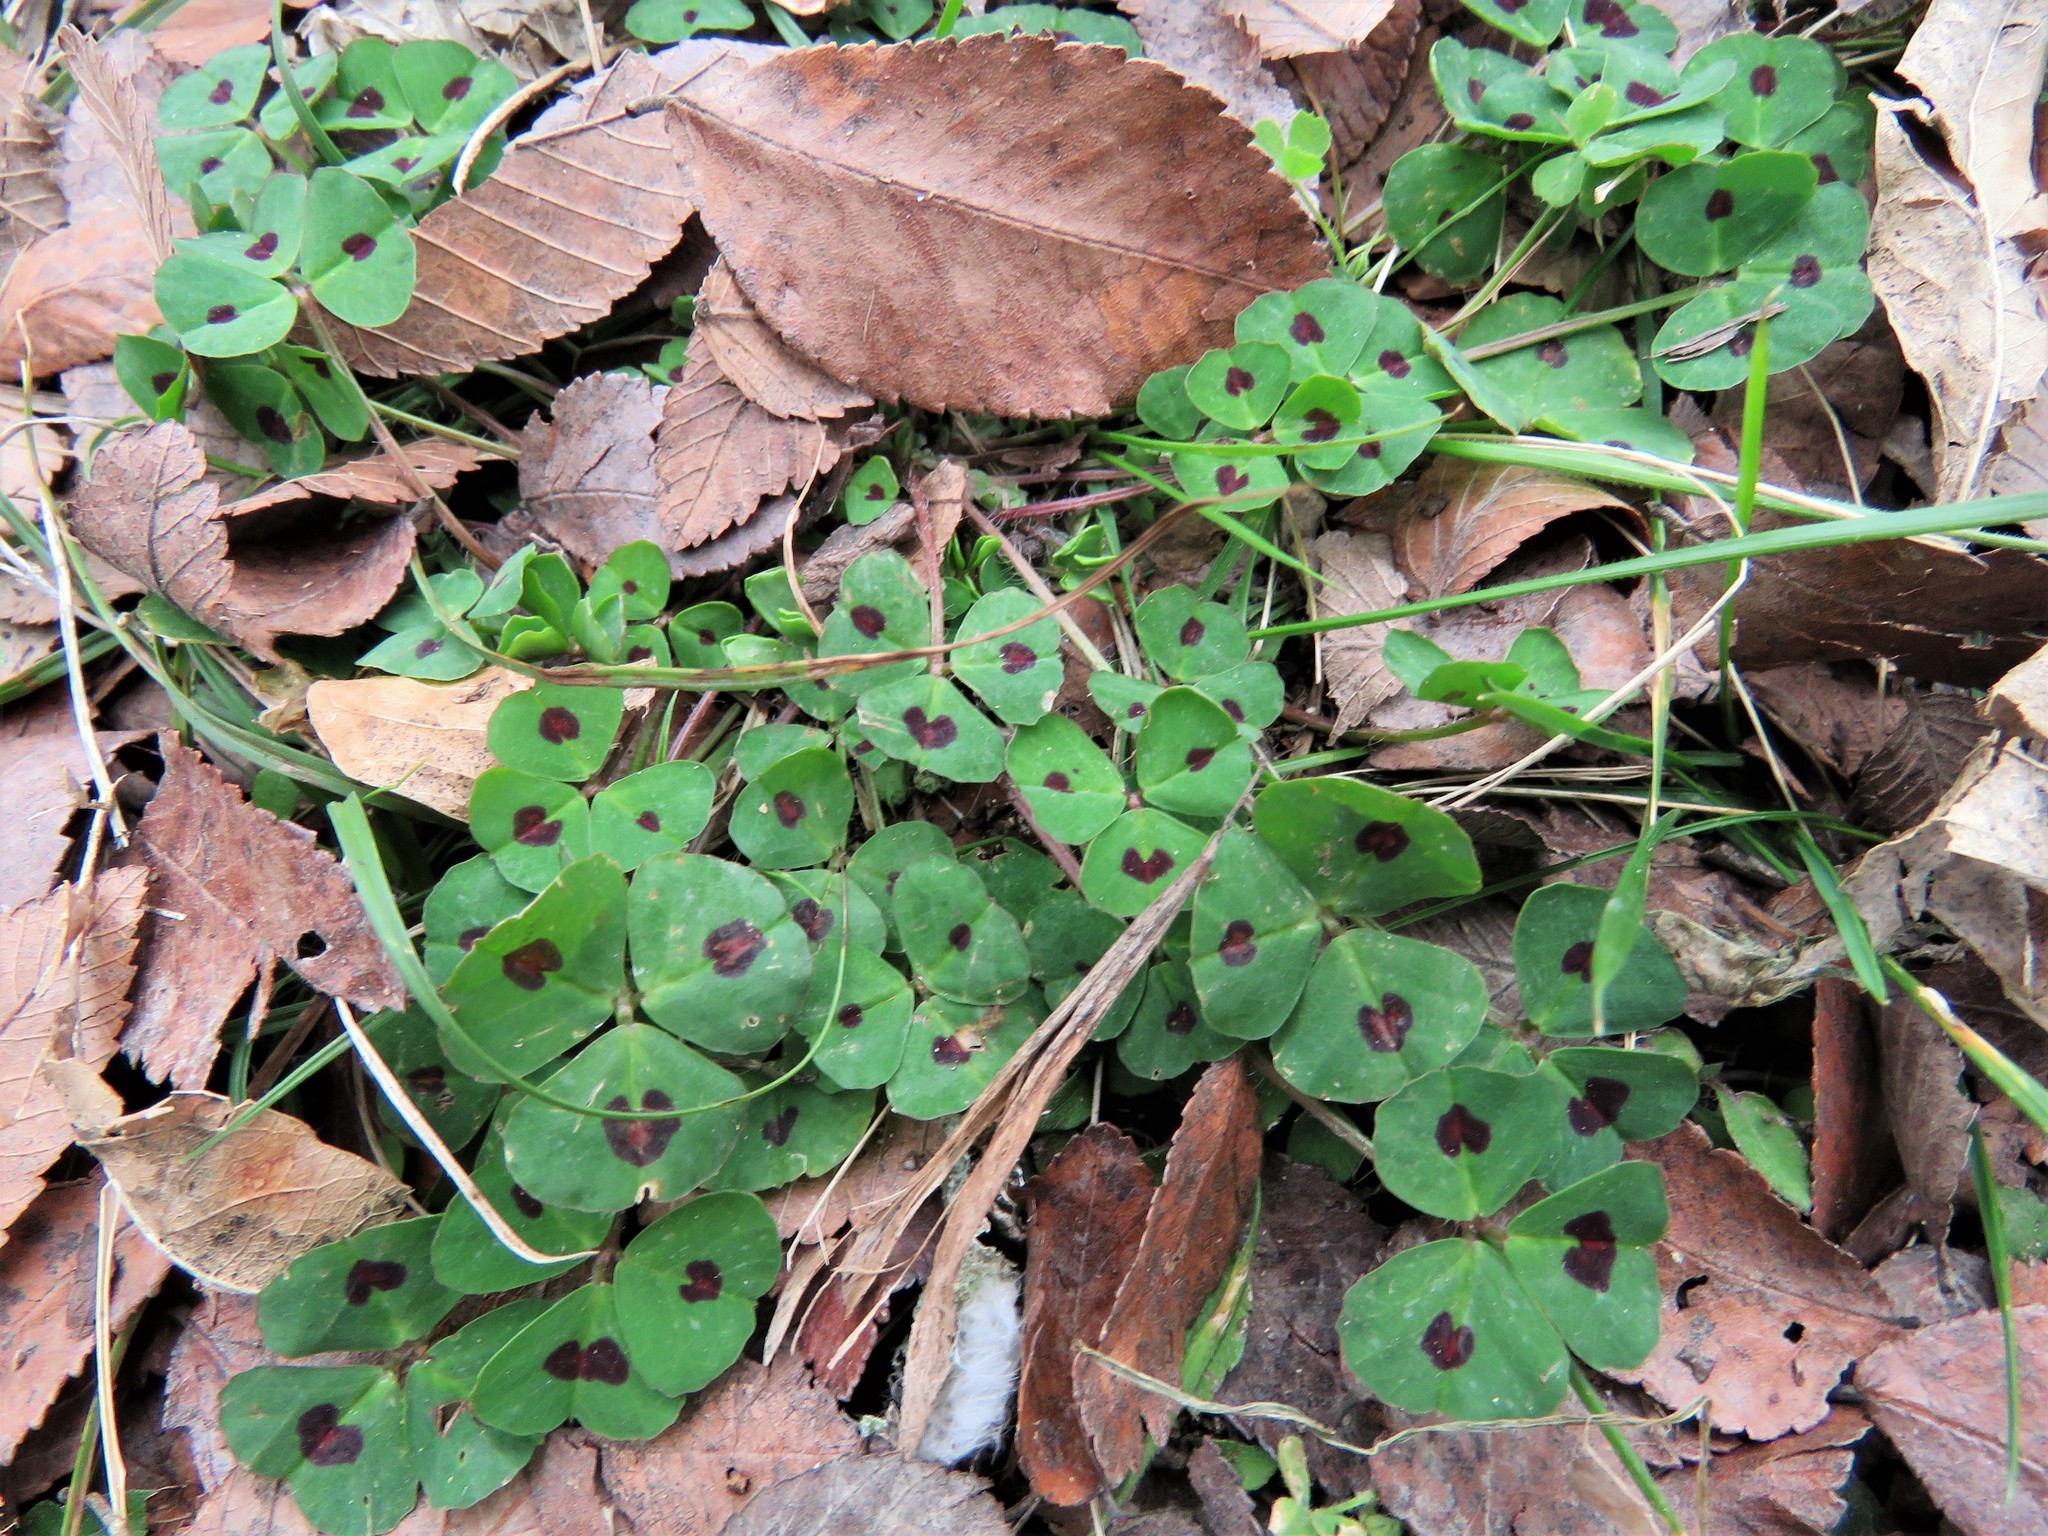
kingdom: Plantae
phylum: Tracheophyta
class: Magnoliopsida
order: Fabales
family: Fabaceae
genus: Medicago
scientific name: Medicago arabica
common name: Spotted medick
